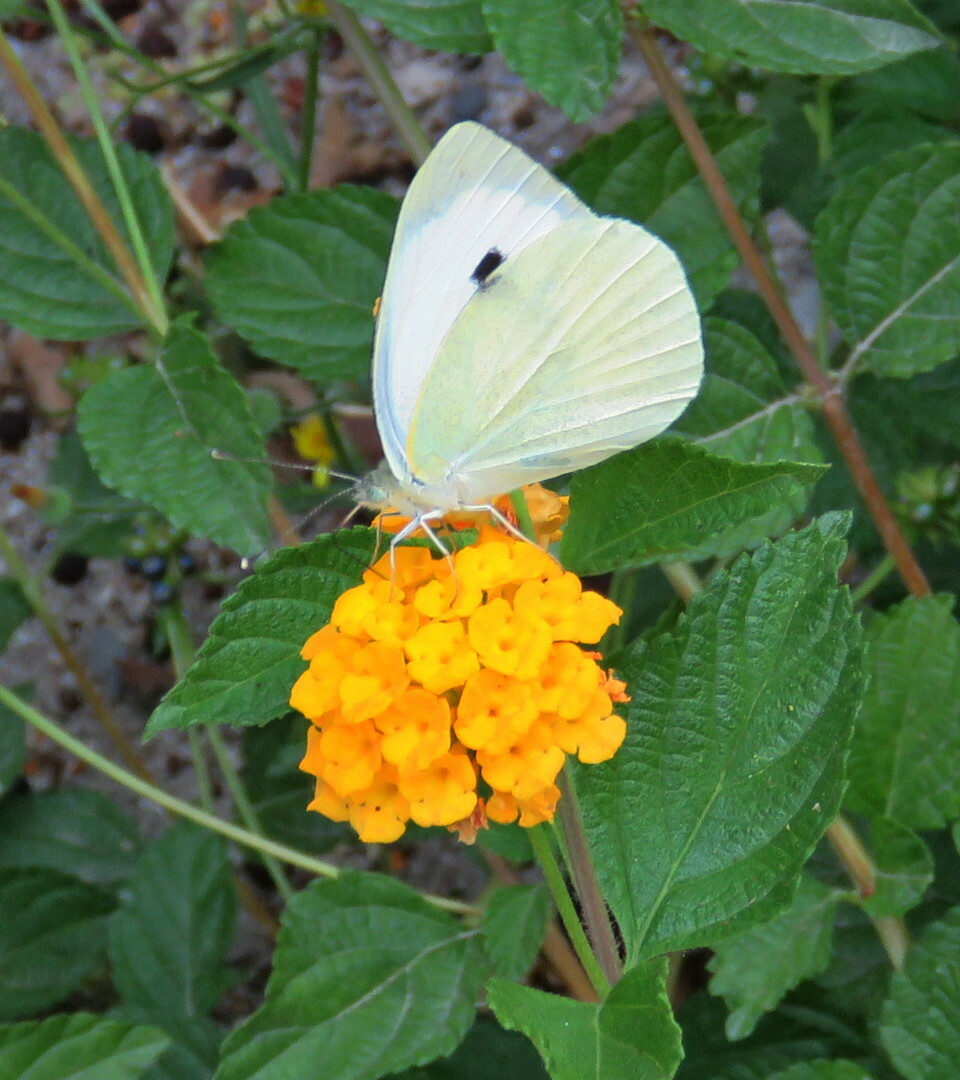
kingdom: Animalia
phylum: Arthropoda
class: Insecta
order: Lepidoptera
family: Pieridae
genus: Pieris
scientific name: Pieris brassicae
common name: Large white
